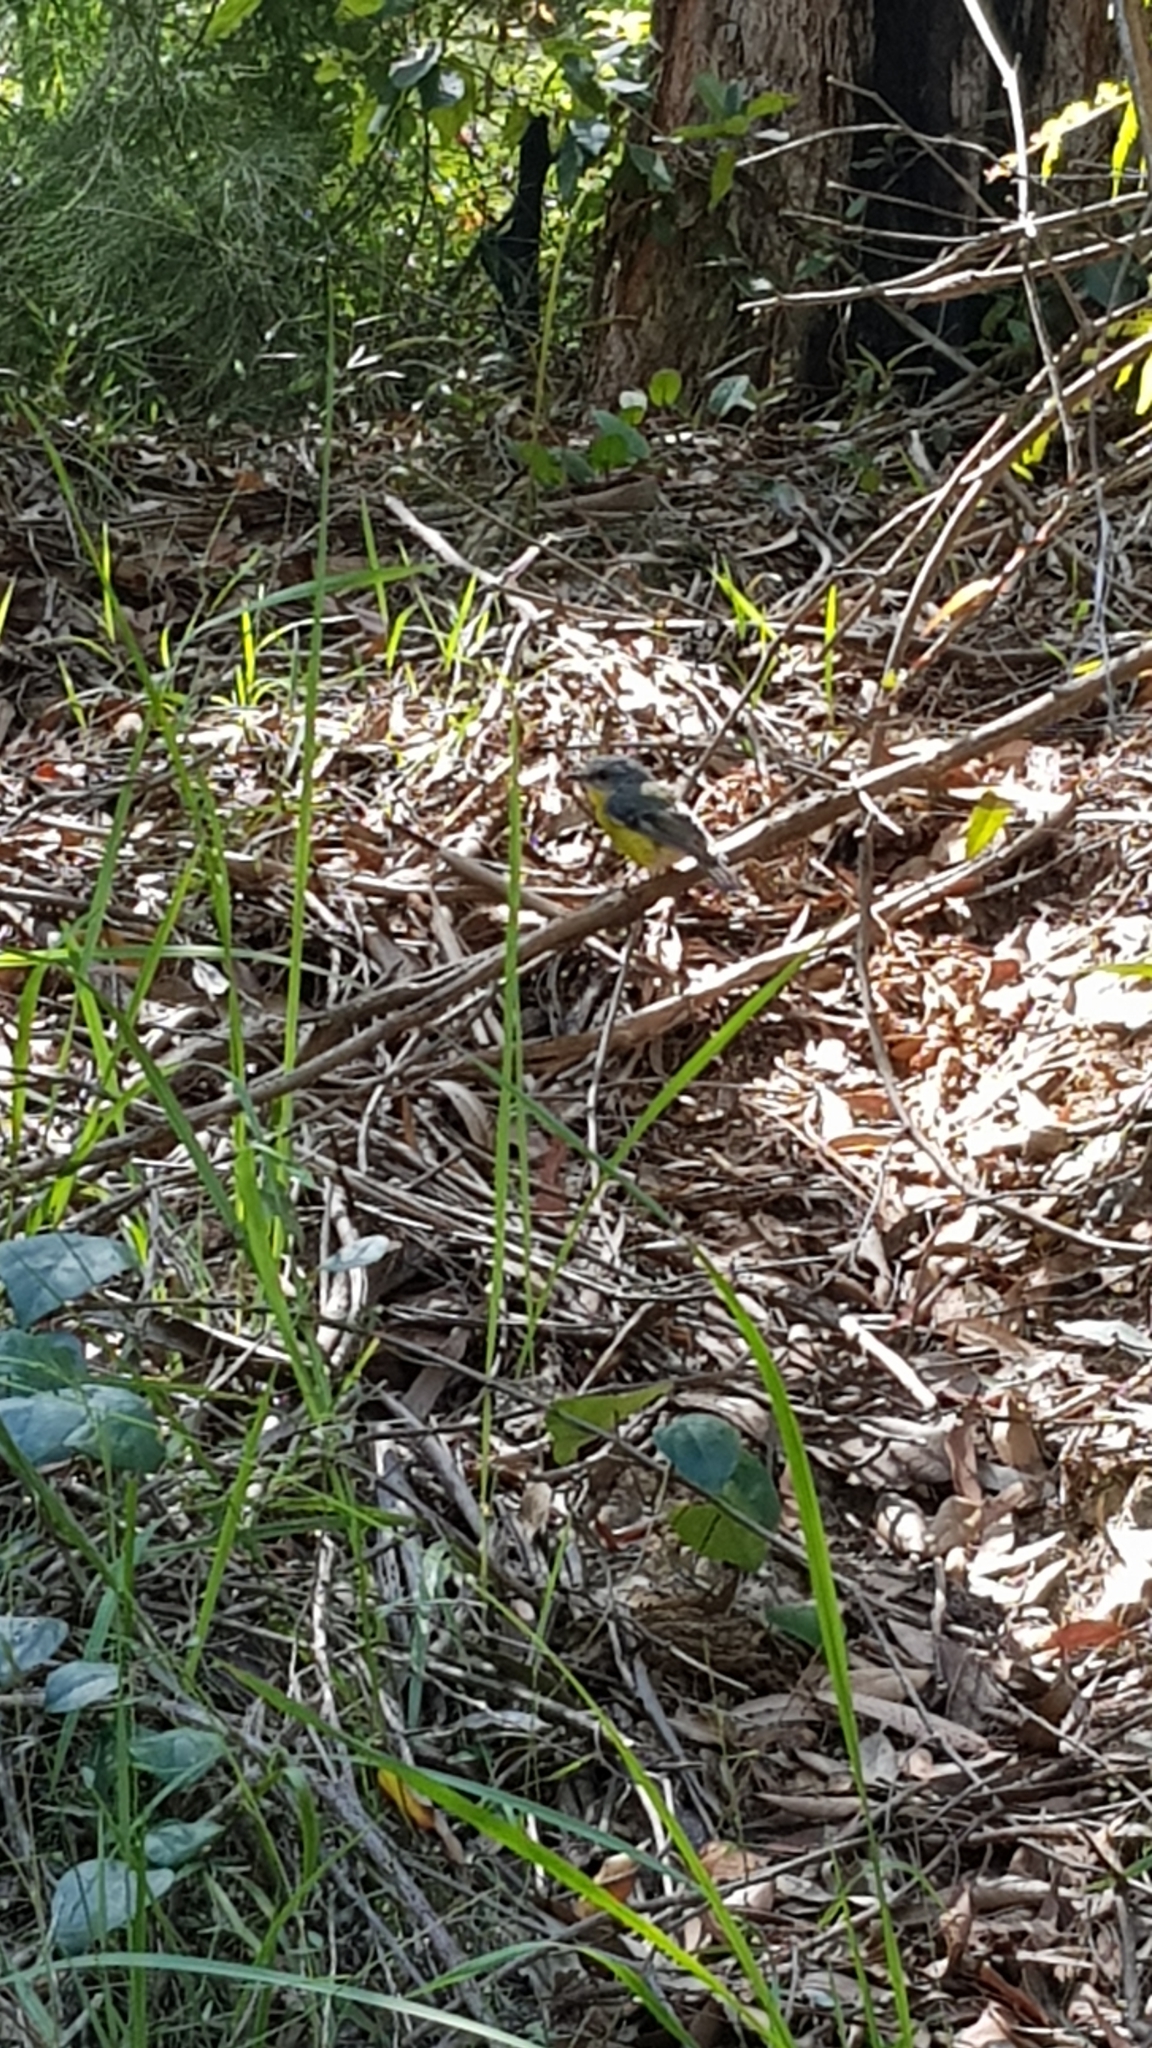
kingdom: Animalia
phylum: Chordata
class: Aves
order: Passeriformes
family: Petroicidae
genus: Eopsaltria
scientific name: Eopsaltria australis
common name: Eastern yellow robin
